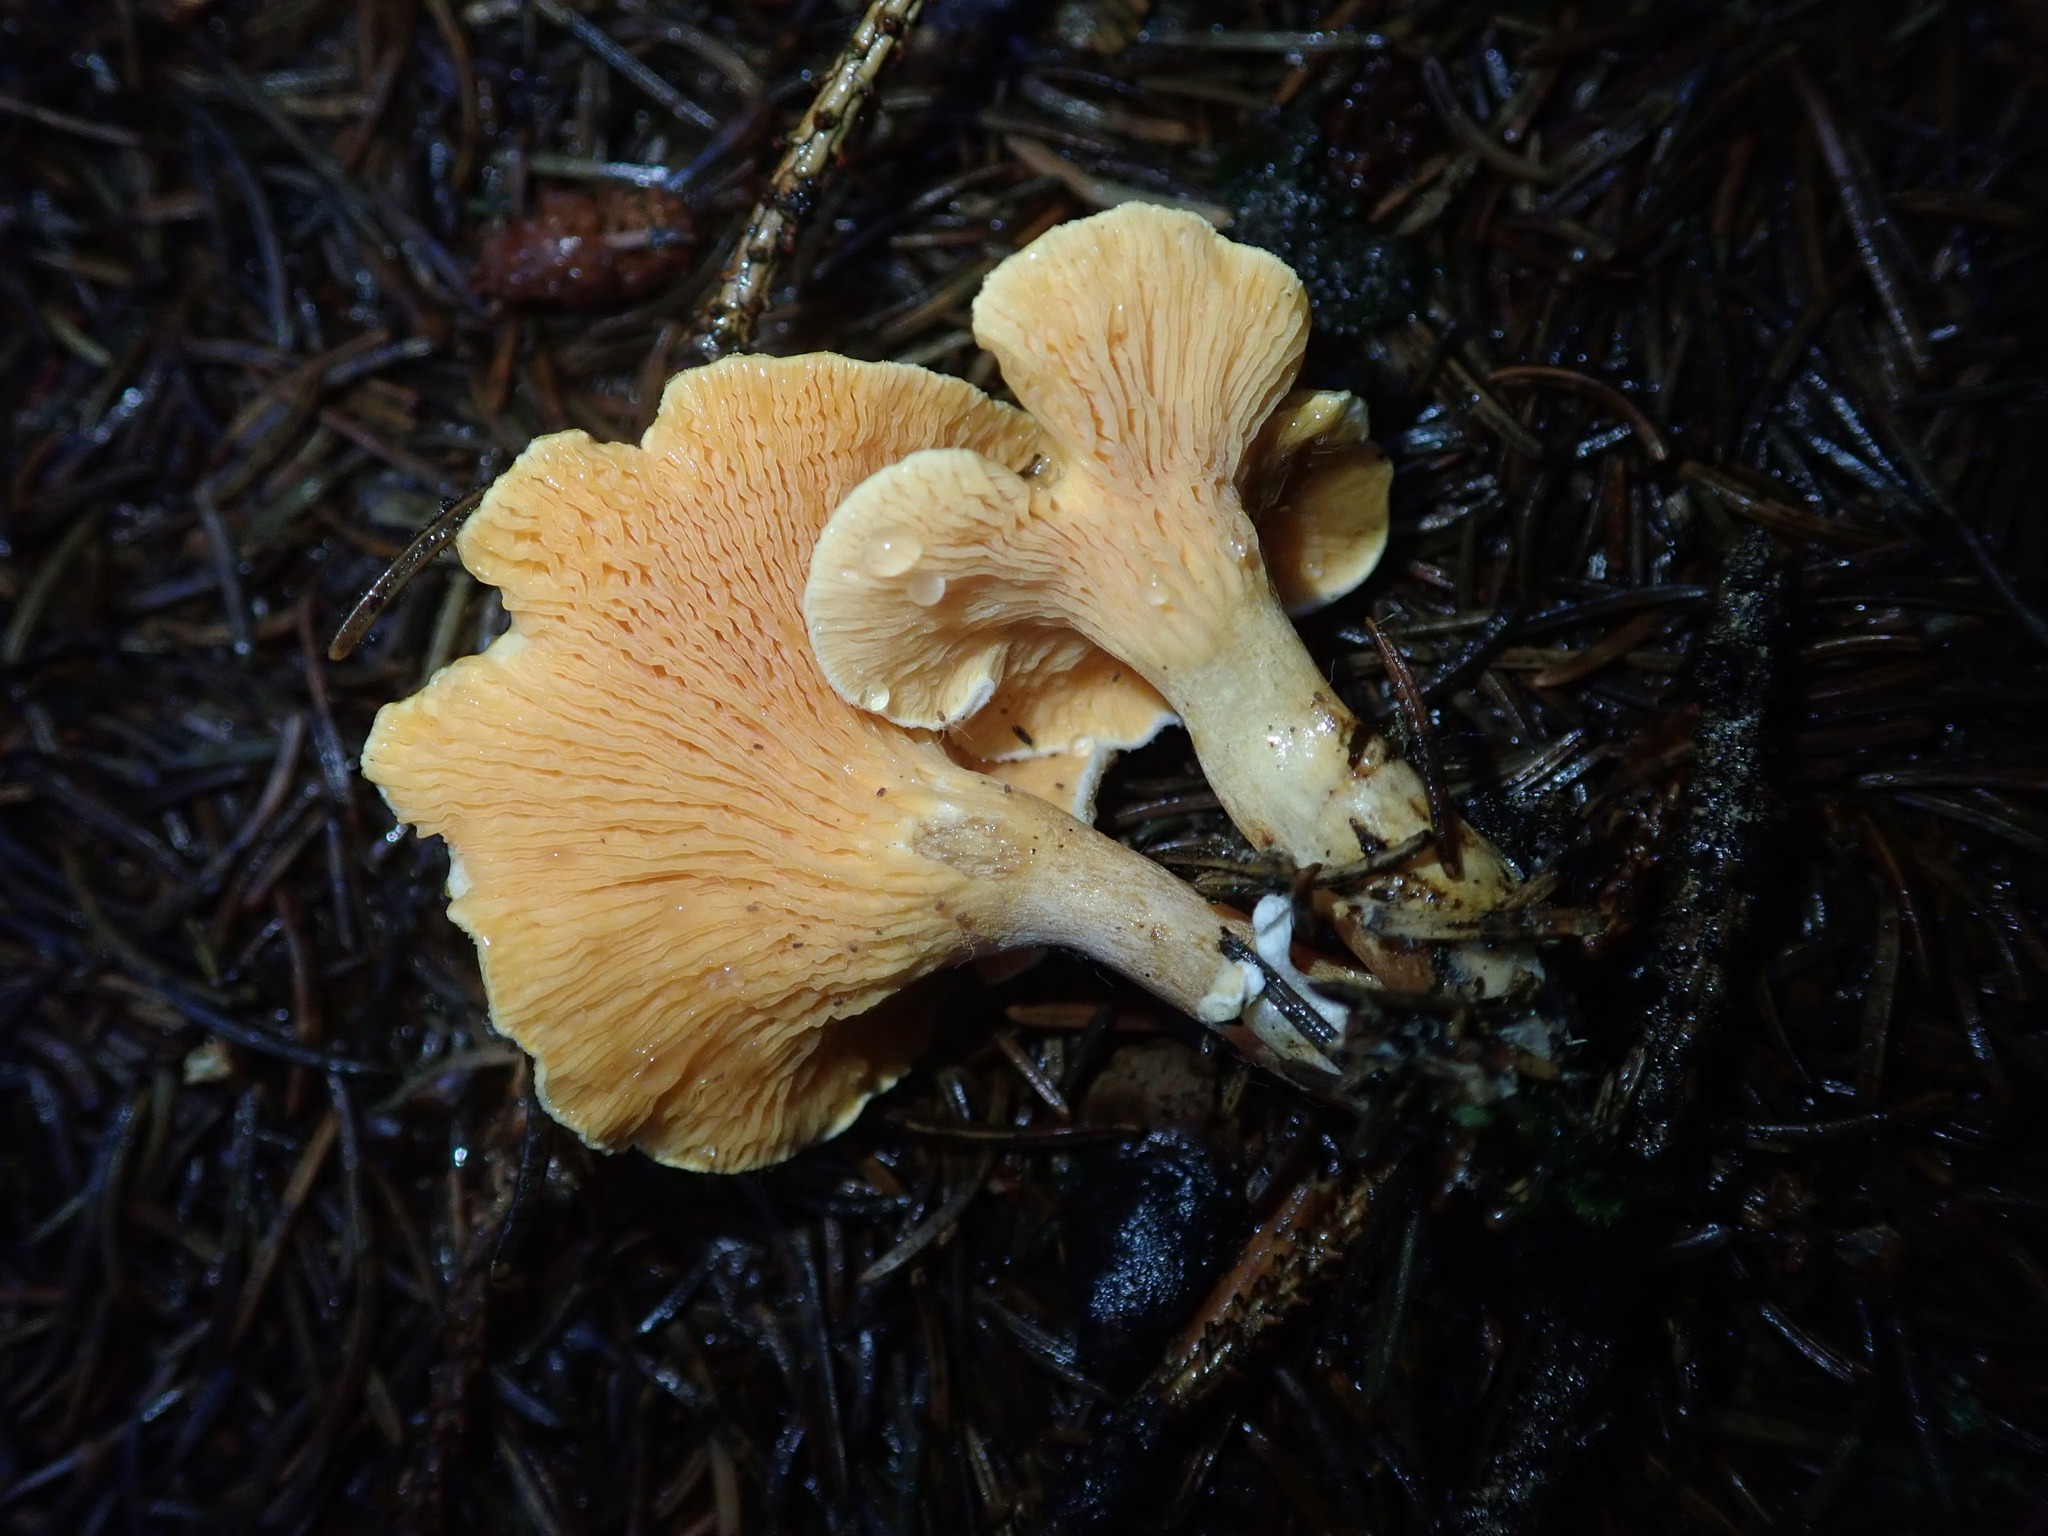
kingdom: Fungi
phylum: Basidiomycota
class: Agaricomycetes
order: Boletales
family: Hygrophoropsidaceae
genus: Hygrophoropsis
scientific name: Hygrophoropsis aurantiaca
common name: False chanterelle
